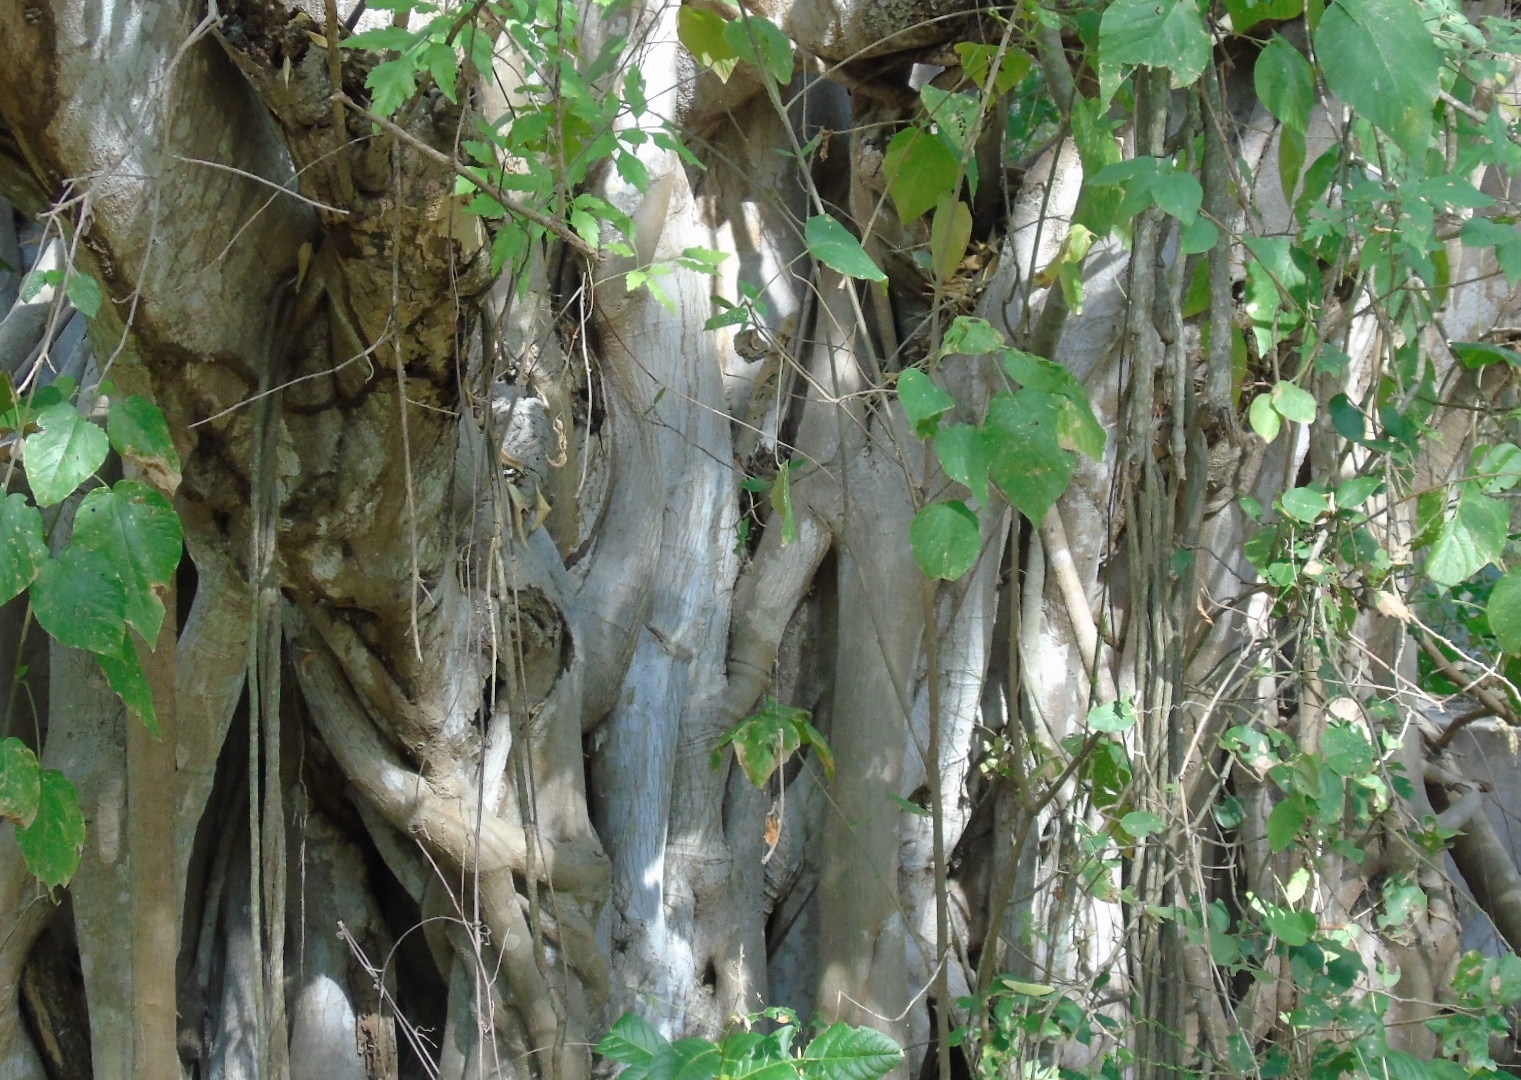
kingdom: Plantae
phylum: Tracheophyta
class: Magnoliopsida
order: Rosales
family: Moraceae
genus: Ficus
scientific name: Ficus pertusa
